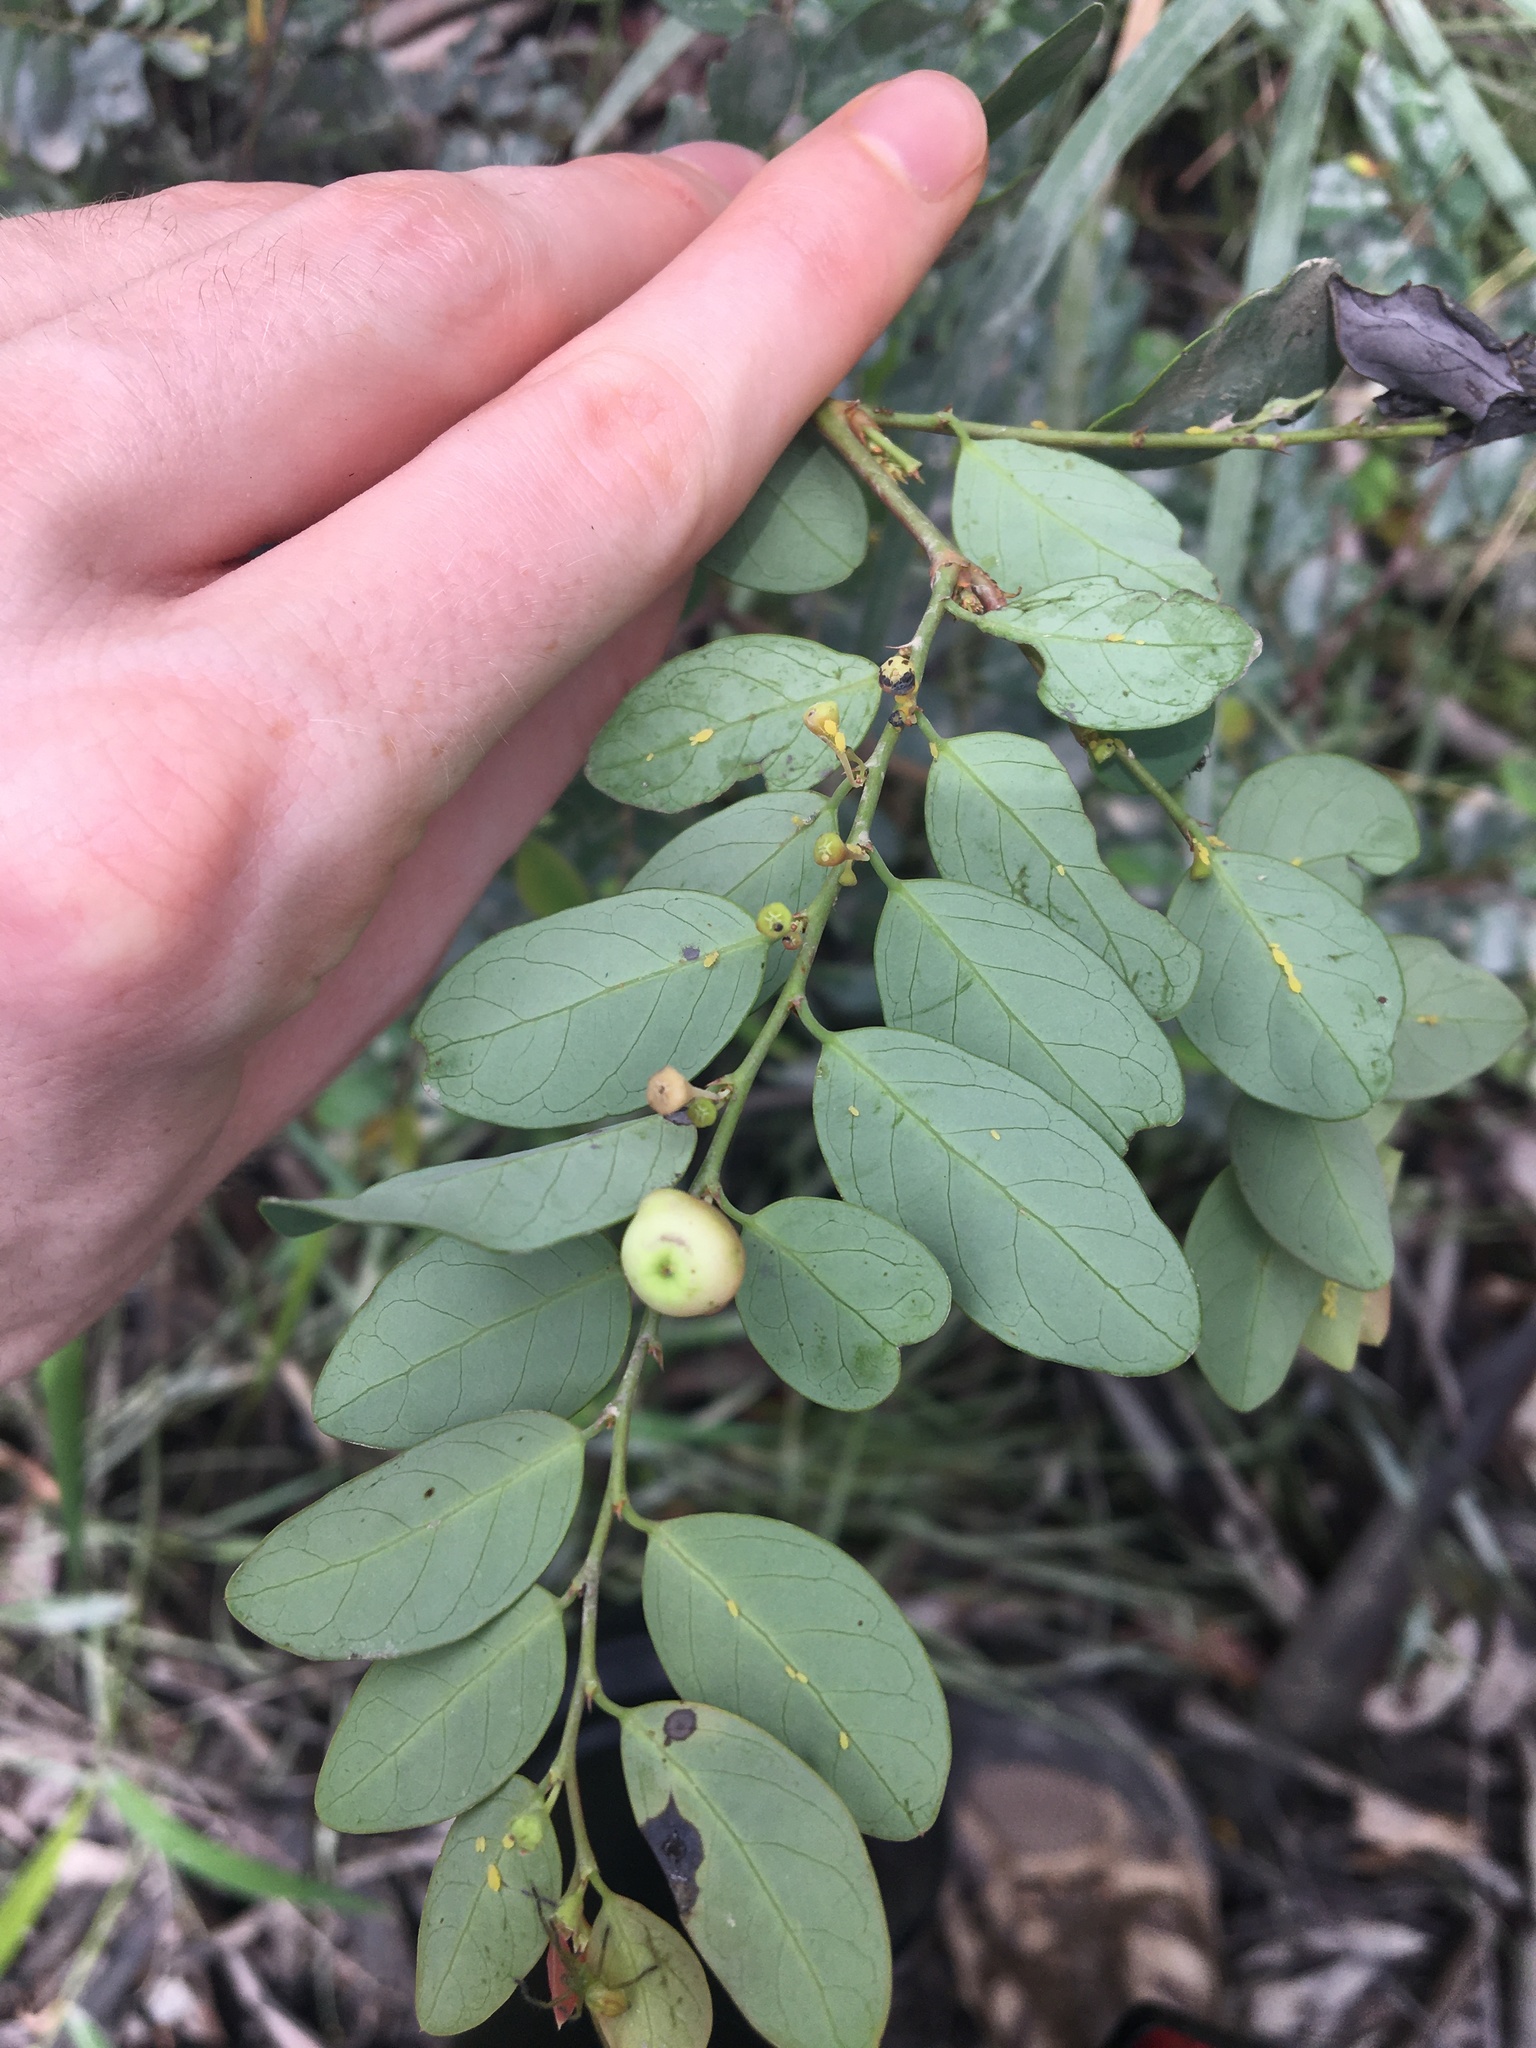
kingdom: Plantae
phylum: Tracheophyta
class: Magnoliopsida
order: Malpighiales
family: Phyllanthaceae
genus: Breynia
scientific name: Breynia oblongifolia
